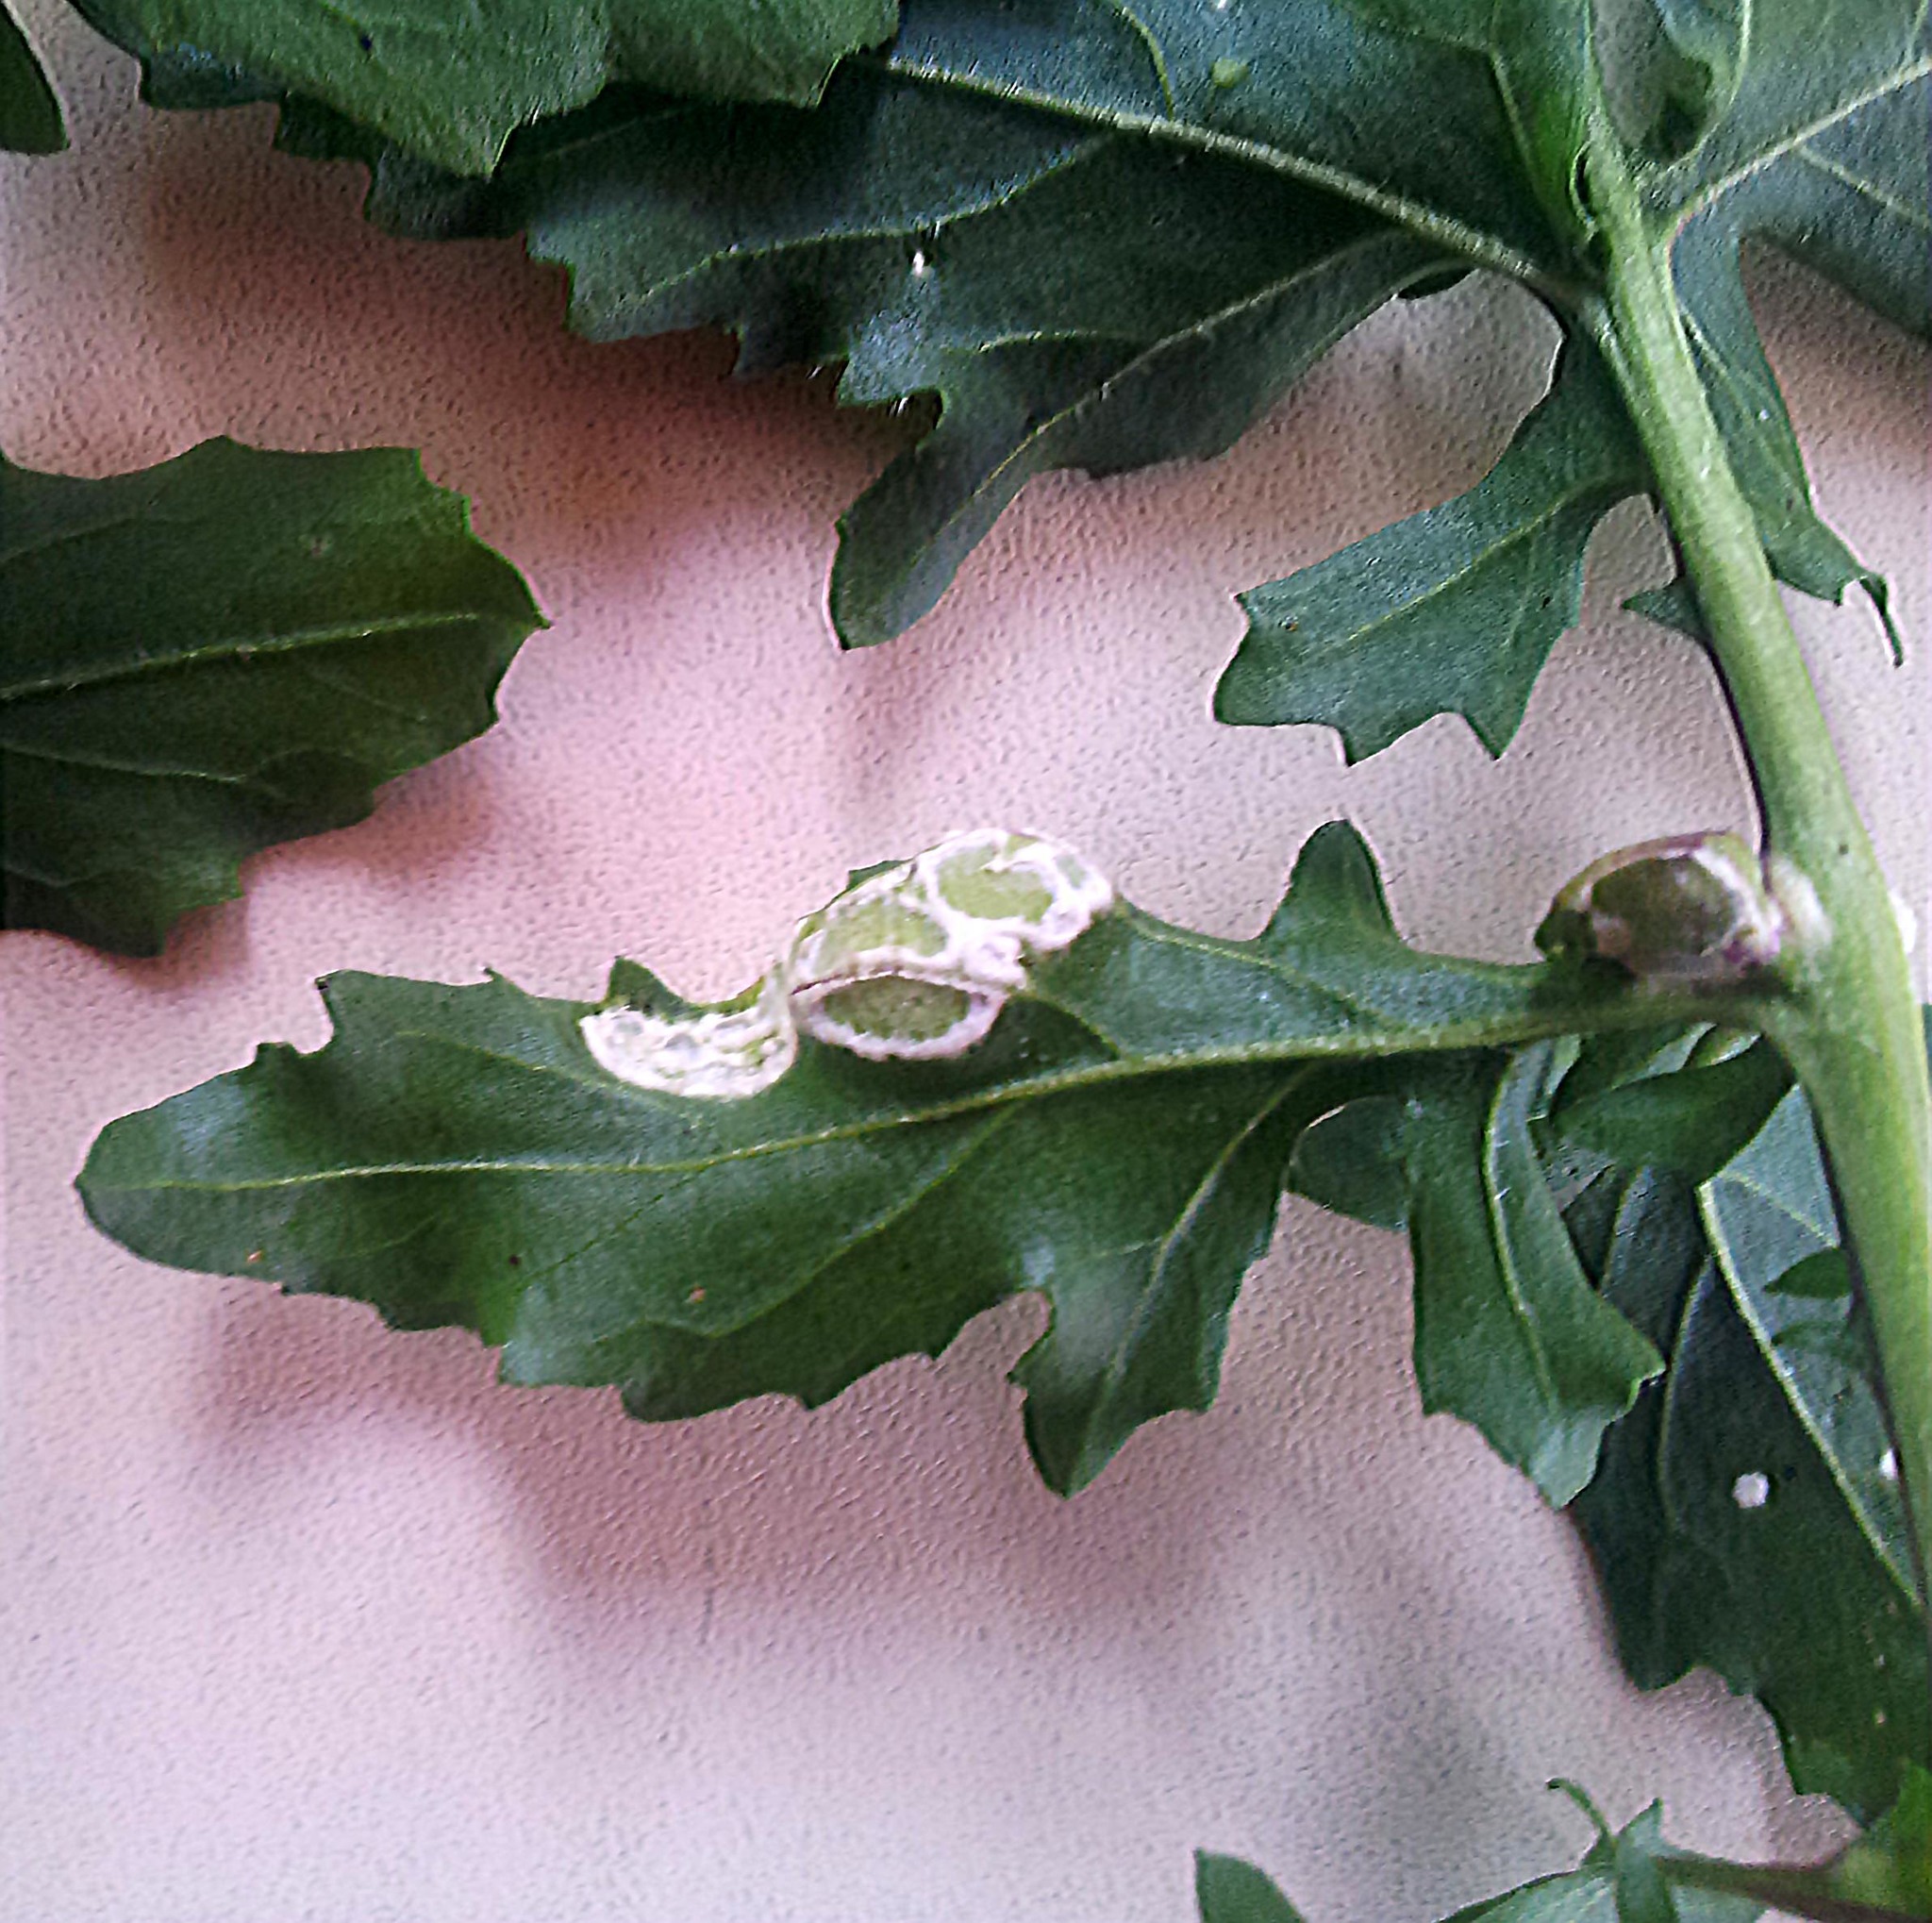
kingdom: Chromista
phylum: Oomycota
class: Peronosporea
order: Albuginales
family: Albuginaceae
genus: Albugo
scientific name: Albugo candida
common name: Crucifer white blister
